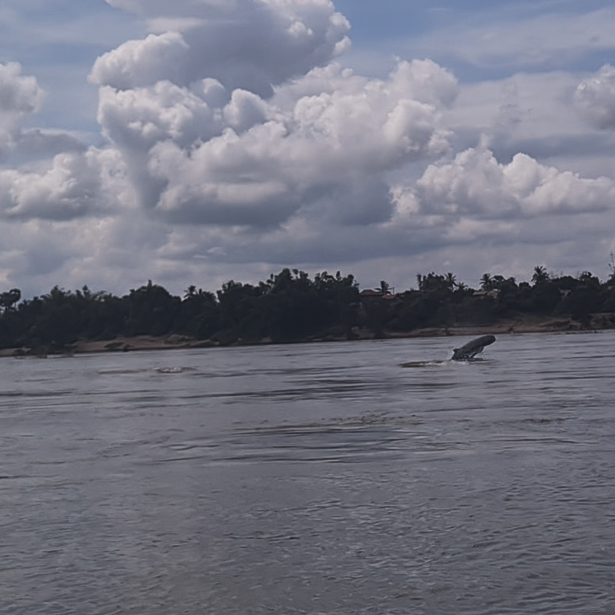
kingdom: Animalia
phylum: Chordata
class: Mammalia
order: Cetacea
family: Delphinidae
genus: Orcaella
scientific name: Orcaella brevirostris
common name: Irrawaddy dolphin
